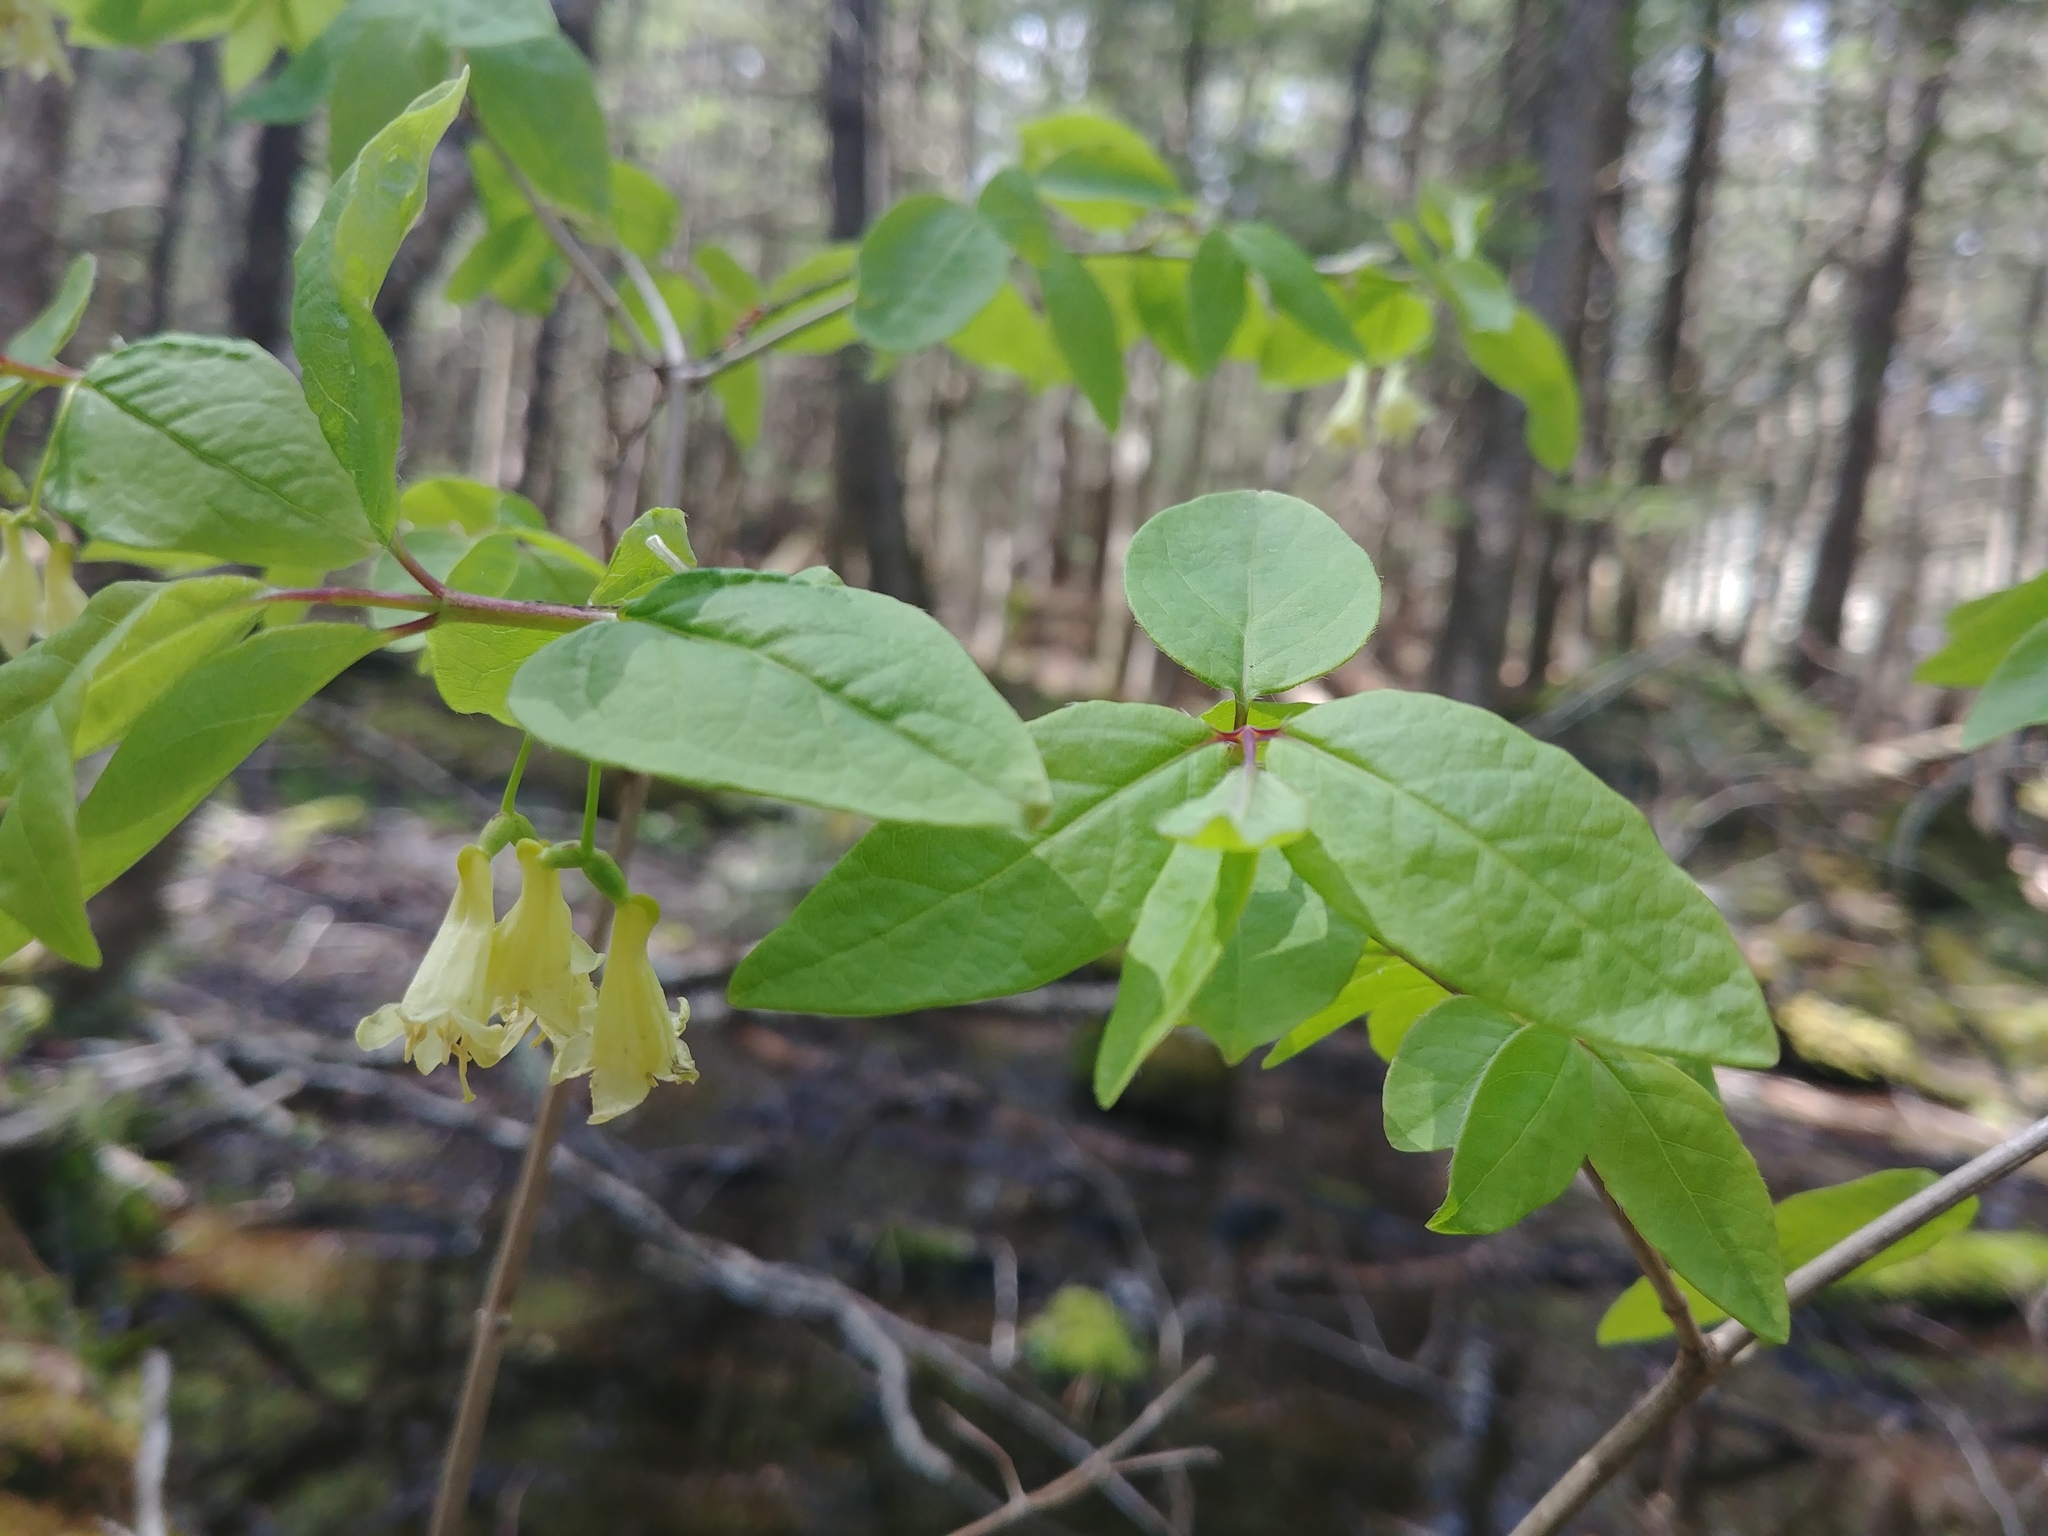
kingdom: Plantae
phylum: Tracheophyta
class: Magnoliopsida
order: Dipsacales
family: Caprifoliaceae
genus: Lonicera
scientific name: Lonicera canadensis
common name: American fly-honeysuckle
